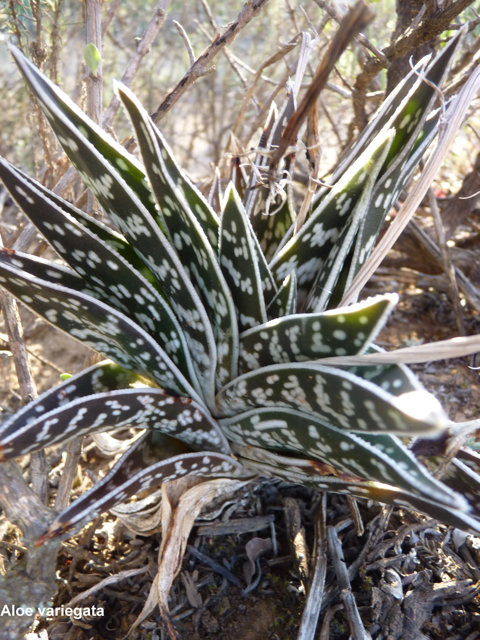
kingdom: Plantae
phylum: Tracheophyta
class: Liliopsida
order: Asparagales
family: Asphodelaceae
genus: Gonialoe
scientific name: Gonialoe variegata
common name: Aloe variegata
